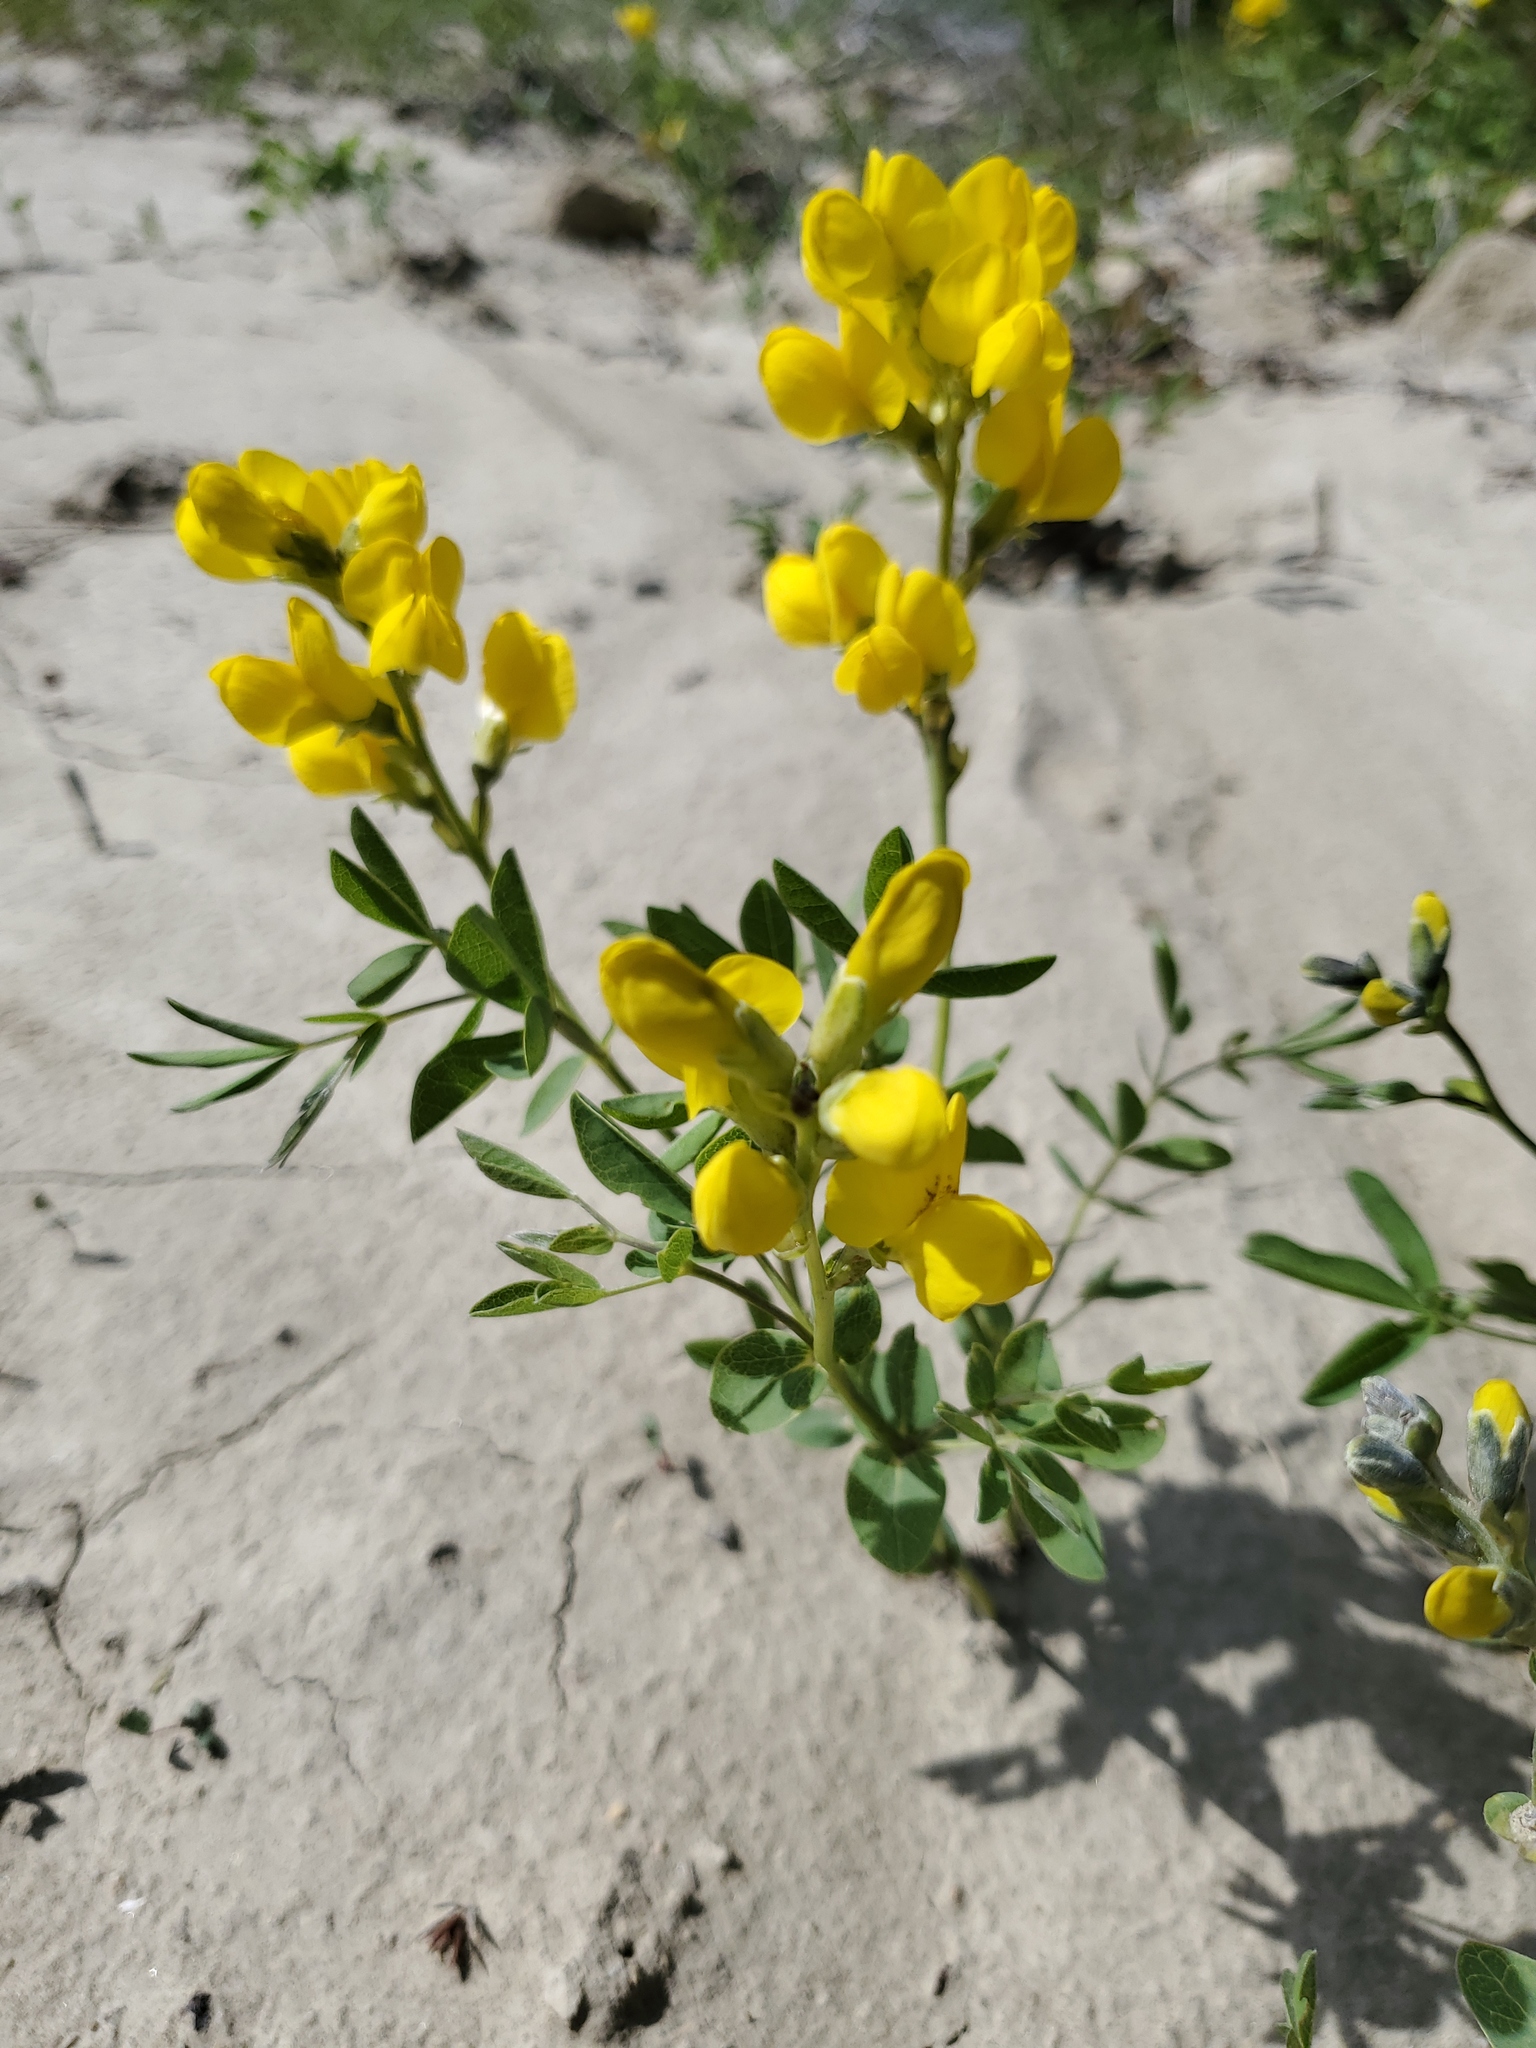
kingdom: Plantae
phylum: Tracheophyta
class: Magnoliopsida
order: Fabales
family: Fabaceae
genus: Thermopsis
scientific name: Thermopsis rhombifolia
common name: Circle-pod-pea
